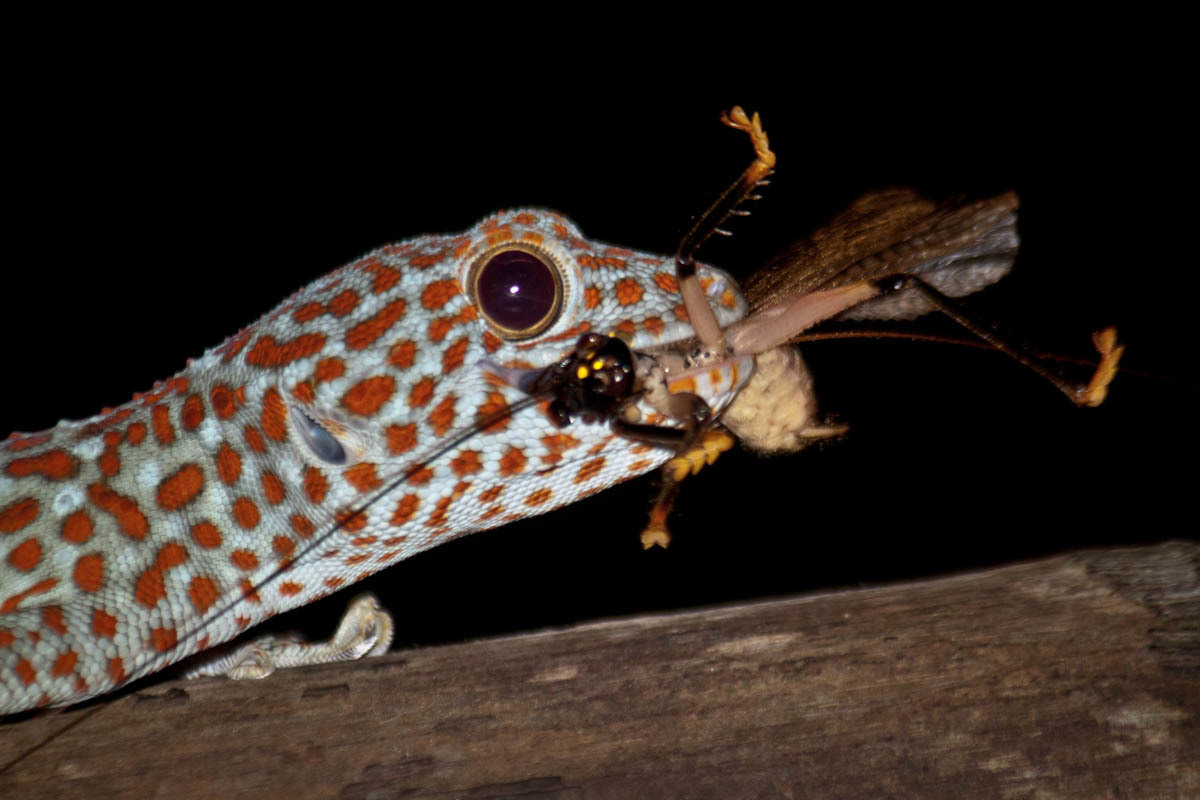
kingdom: Animalia
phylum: Chordata
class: Squamata
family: Gekkonidae
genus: Gekko
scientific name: Gekko gecko
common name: Tokay gecko
